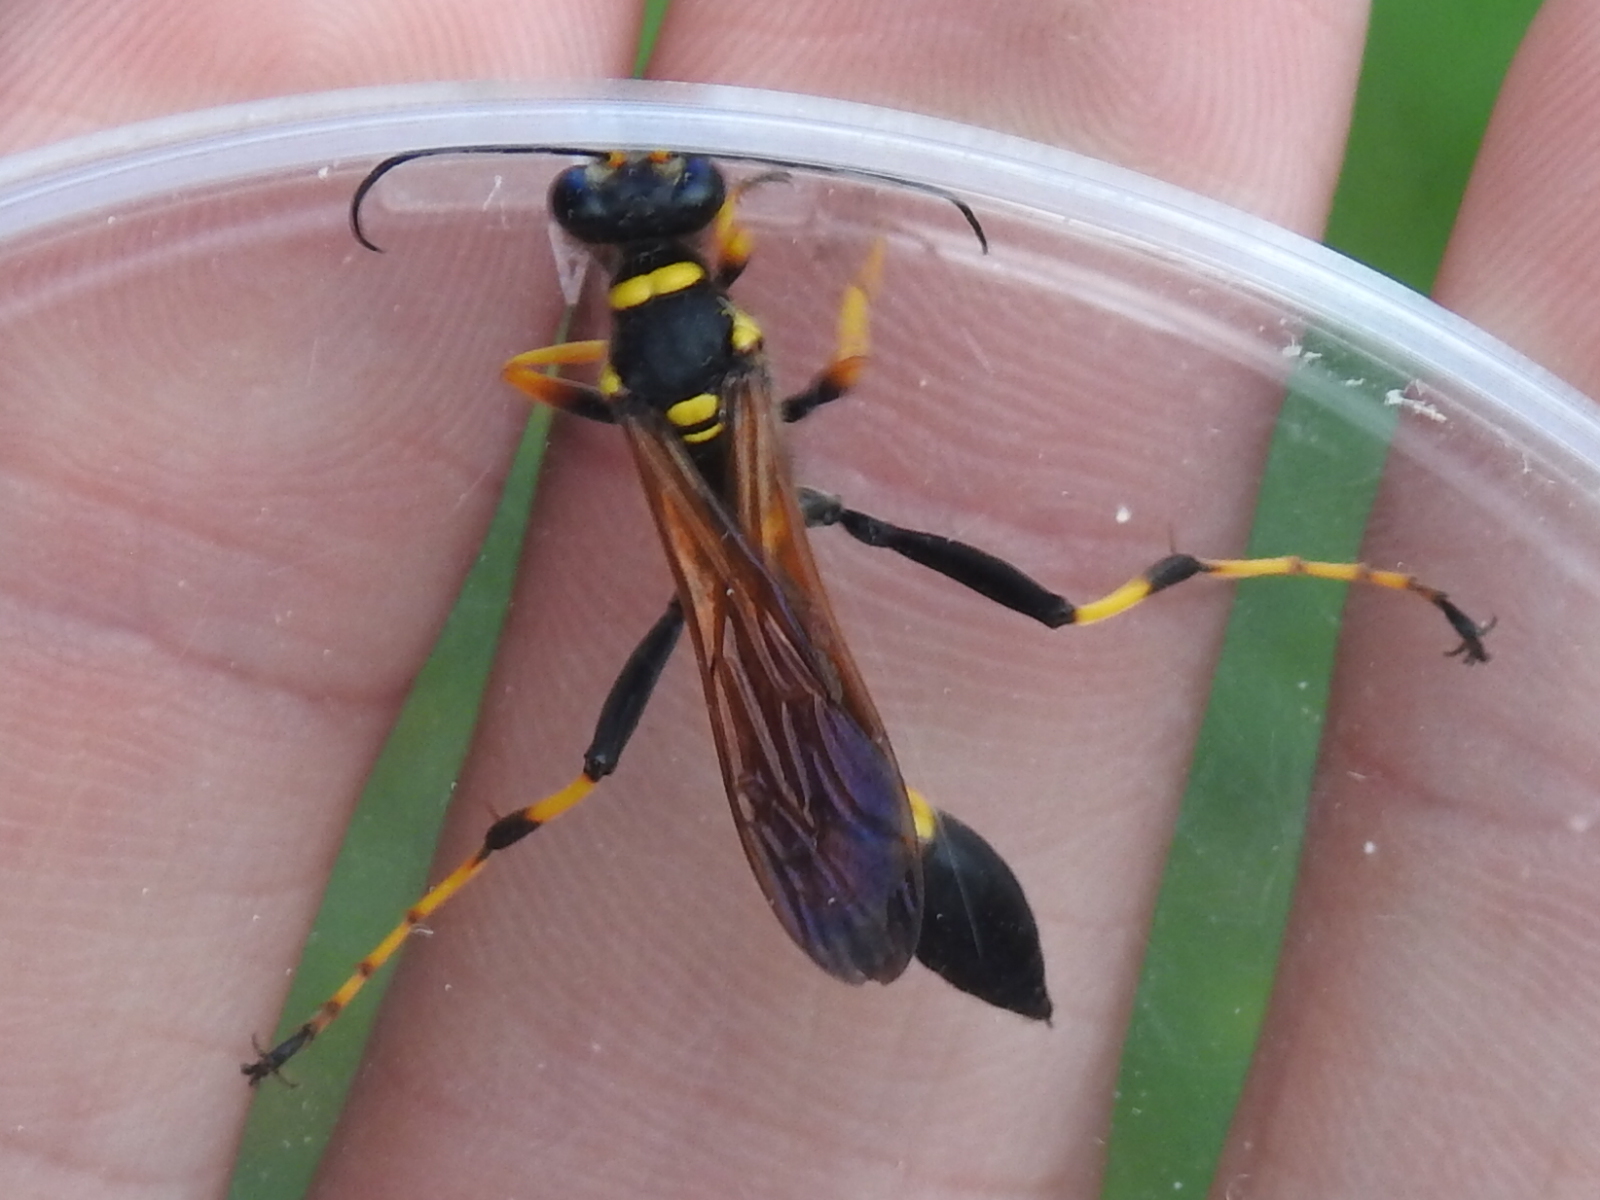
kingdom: Animalia
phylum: Arthropoda
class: Insecta
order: Hymenoptera
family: Sphecidae
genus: Sceliphron
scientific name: Sceliphron caementarium
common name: Mud dauber
